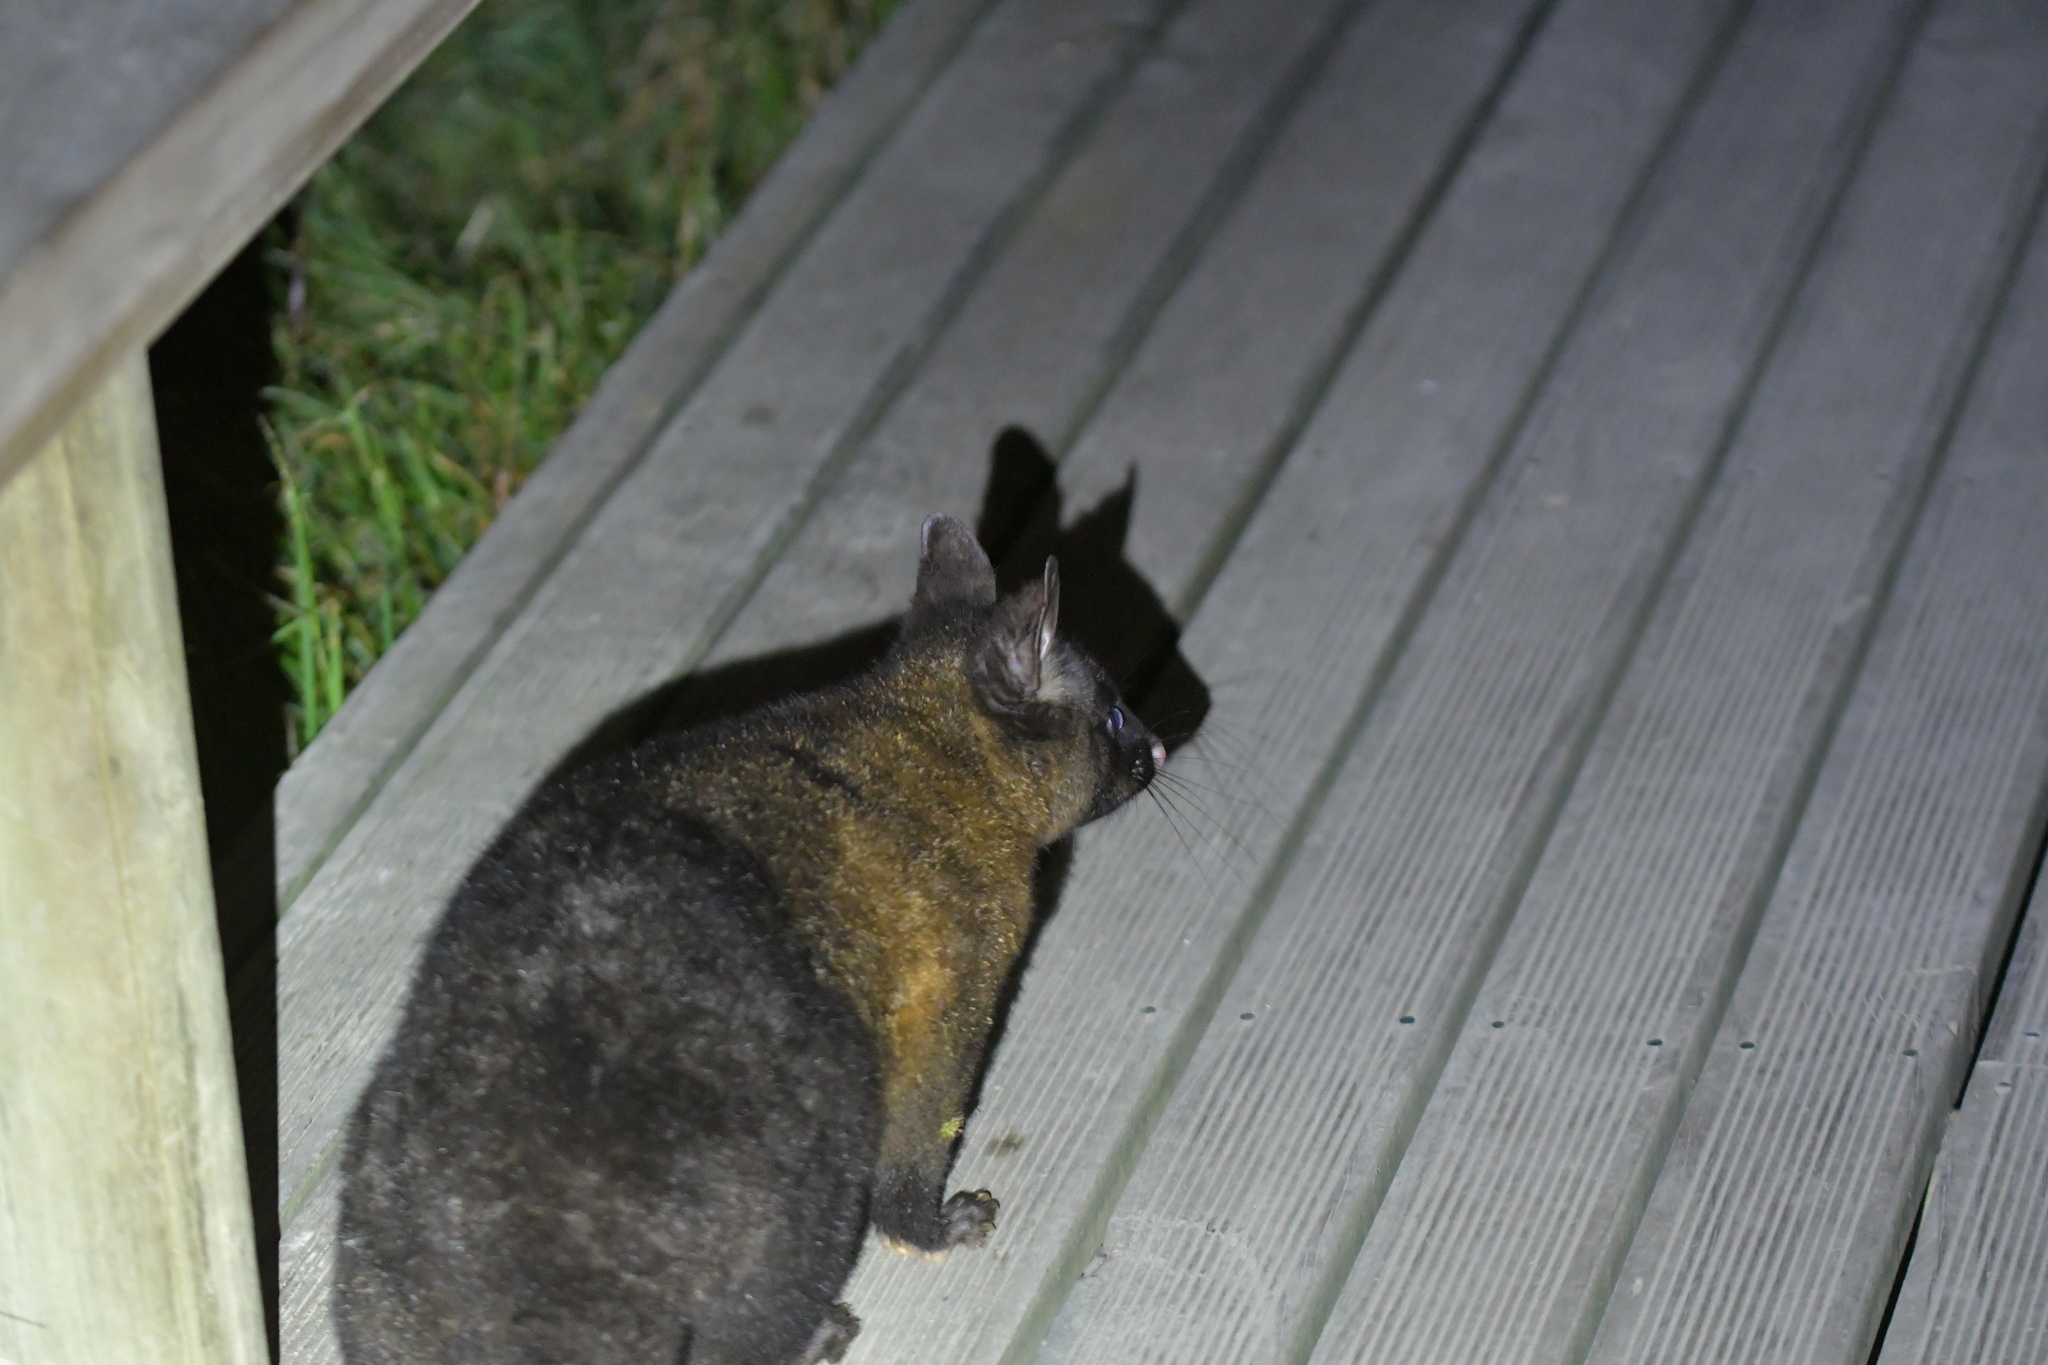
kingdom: Animalia
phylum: Chordata
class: Mammalia
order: Diprotodontia
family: Phalangeridae
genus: Trichosurus
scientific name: Trichosurus vulpecula
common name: Common brushtail
